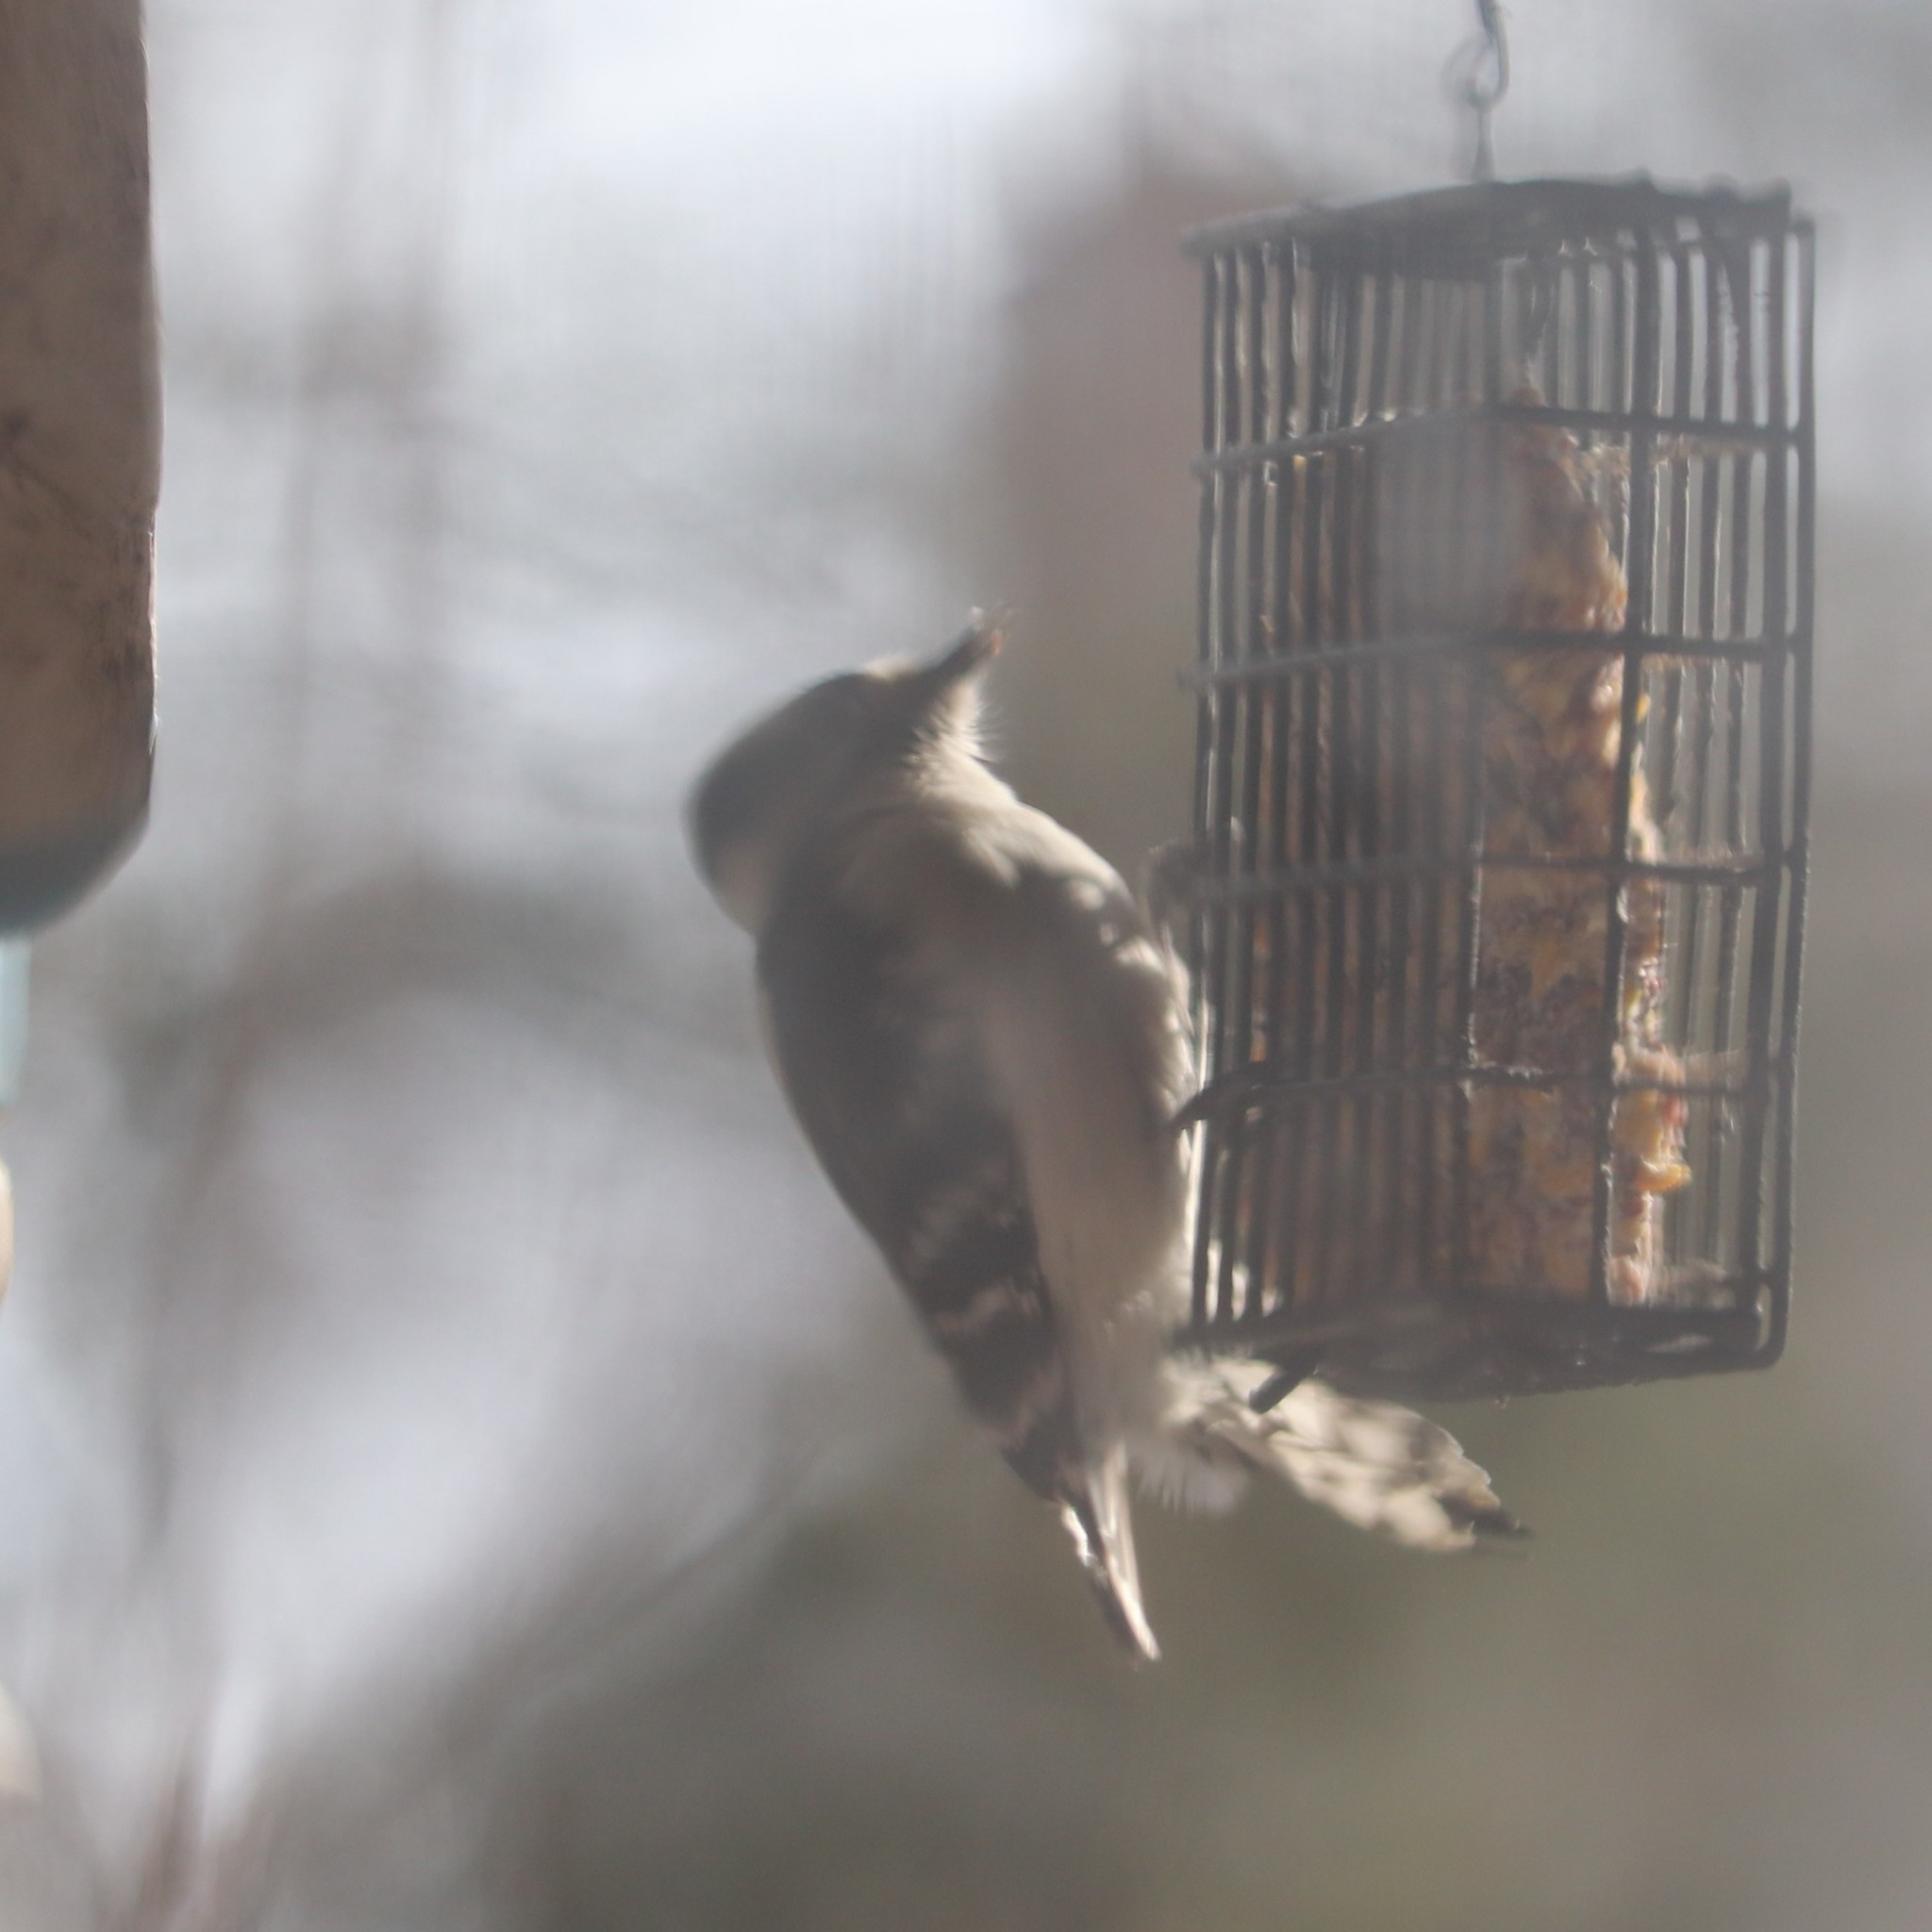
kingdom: Animalia
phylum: Chordata
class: Aves
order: Piciformes
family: Picidae
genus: Dryobates
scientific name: Dryobates pubescens
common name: Downy woodpecker
